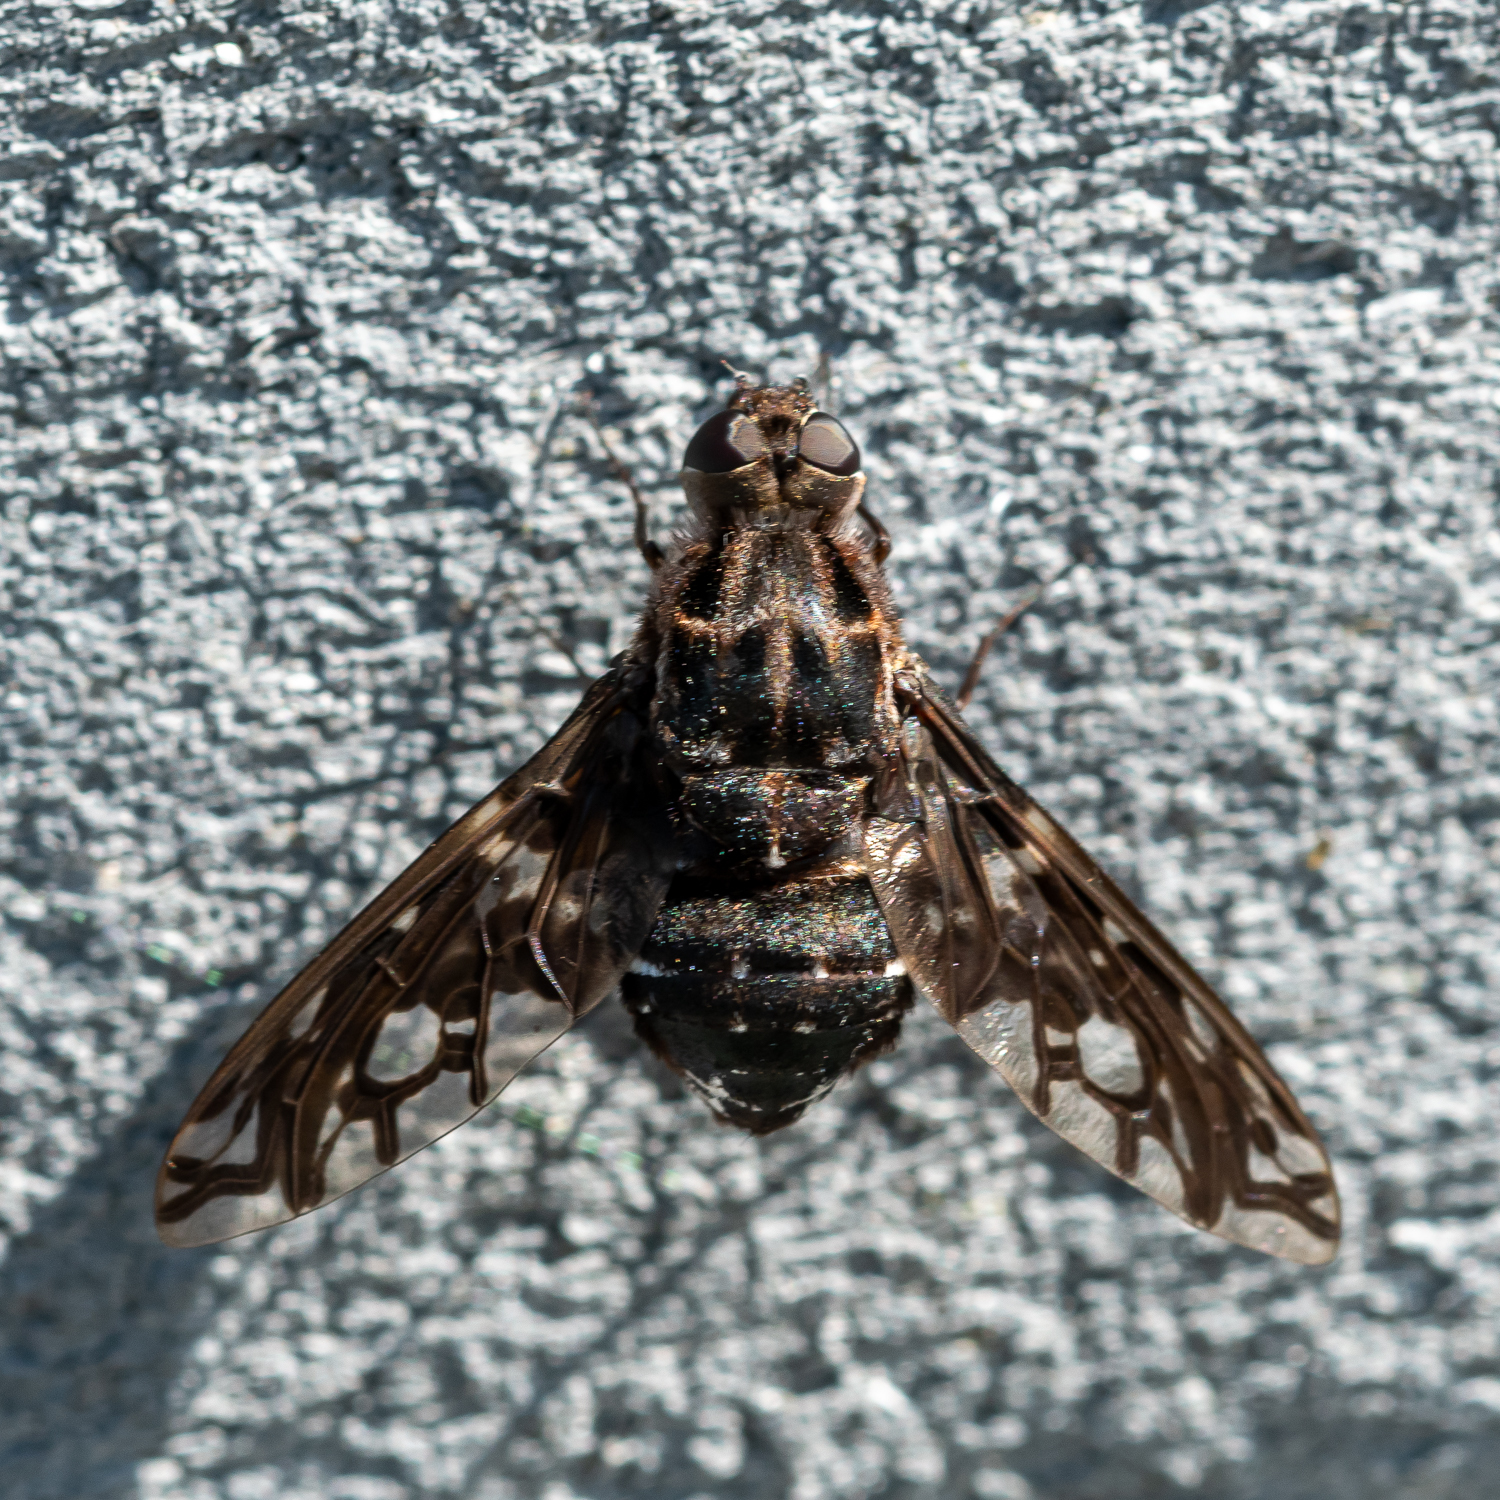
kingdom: Animalia
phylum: Arthropoda
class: Insecta
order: Diptera
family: Bombyliidae
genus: Xenox
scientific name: Xenox tigrinus
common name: Tiger bee fly
